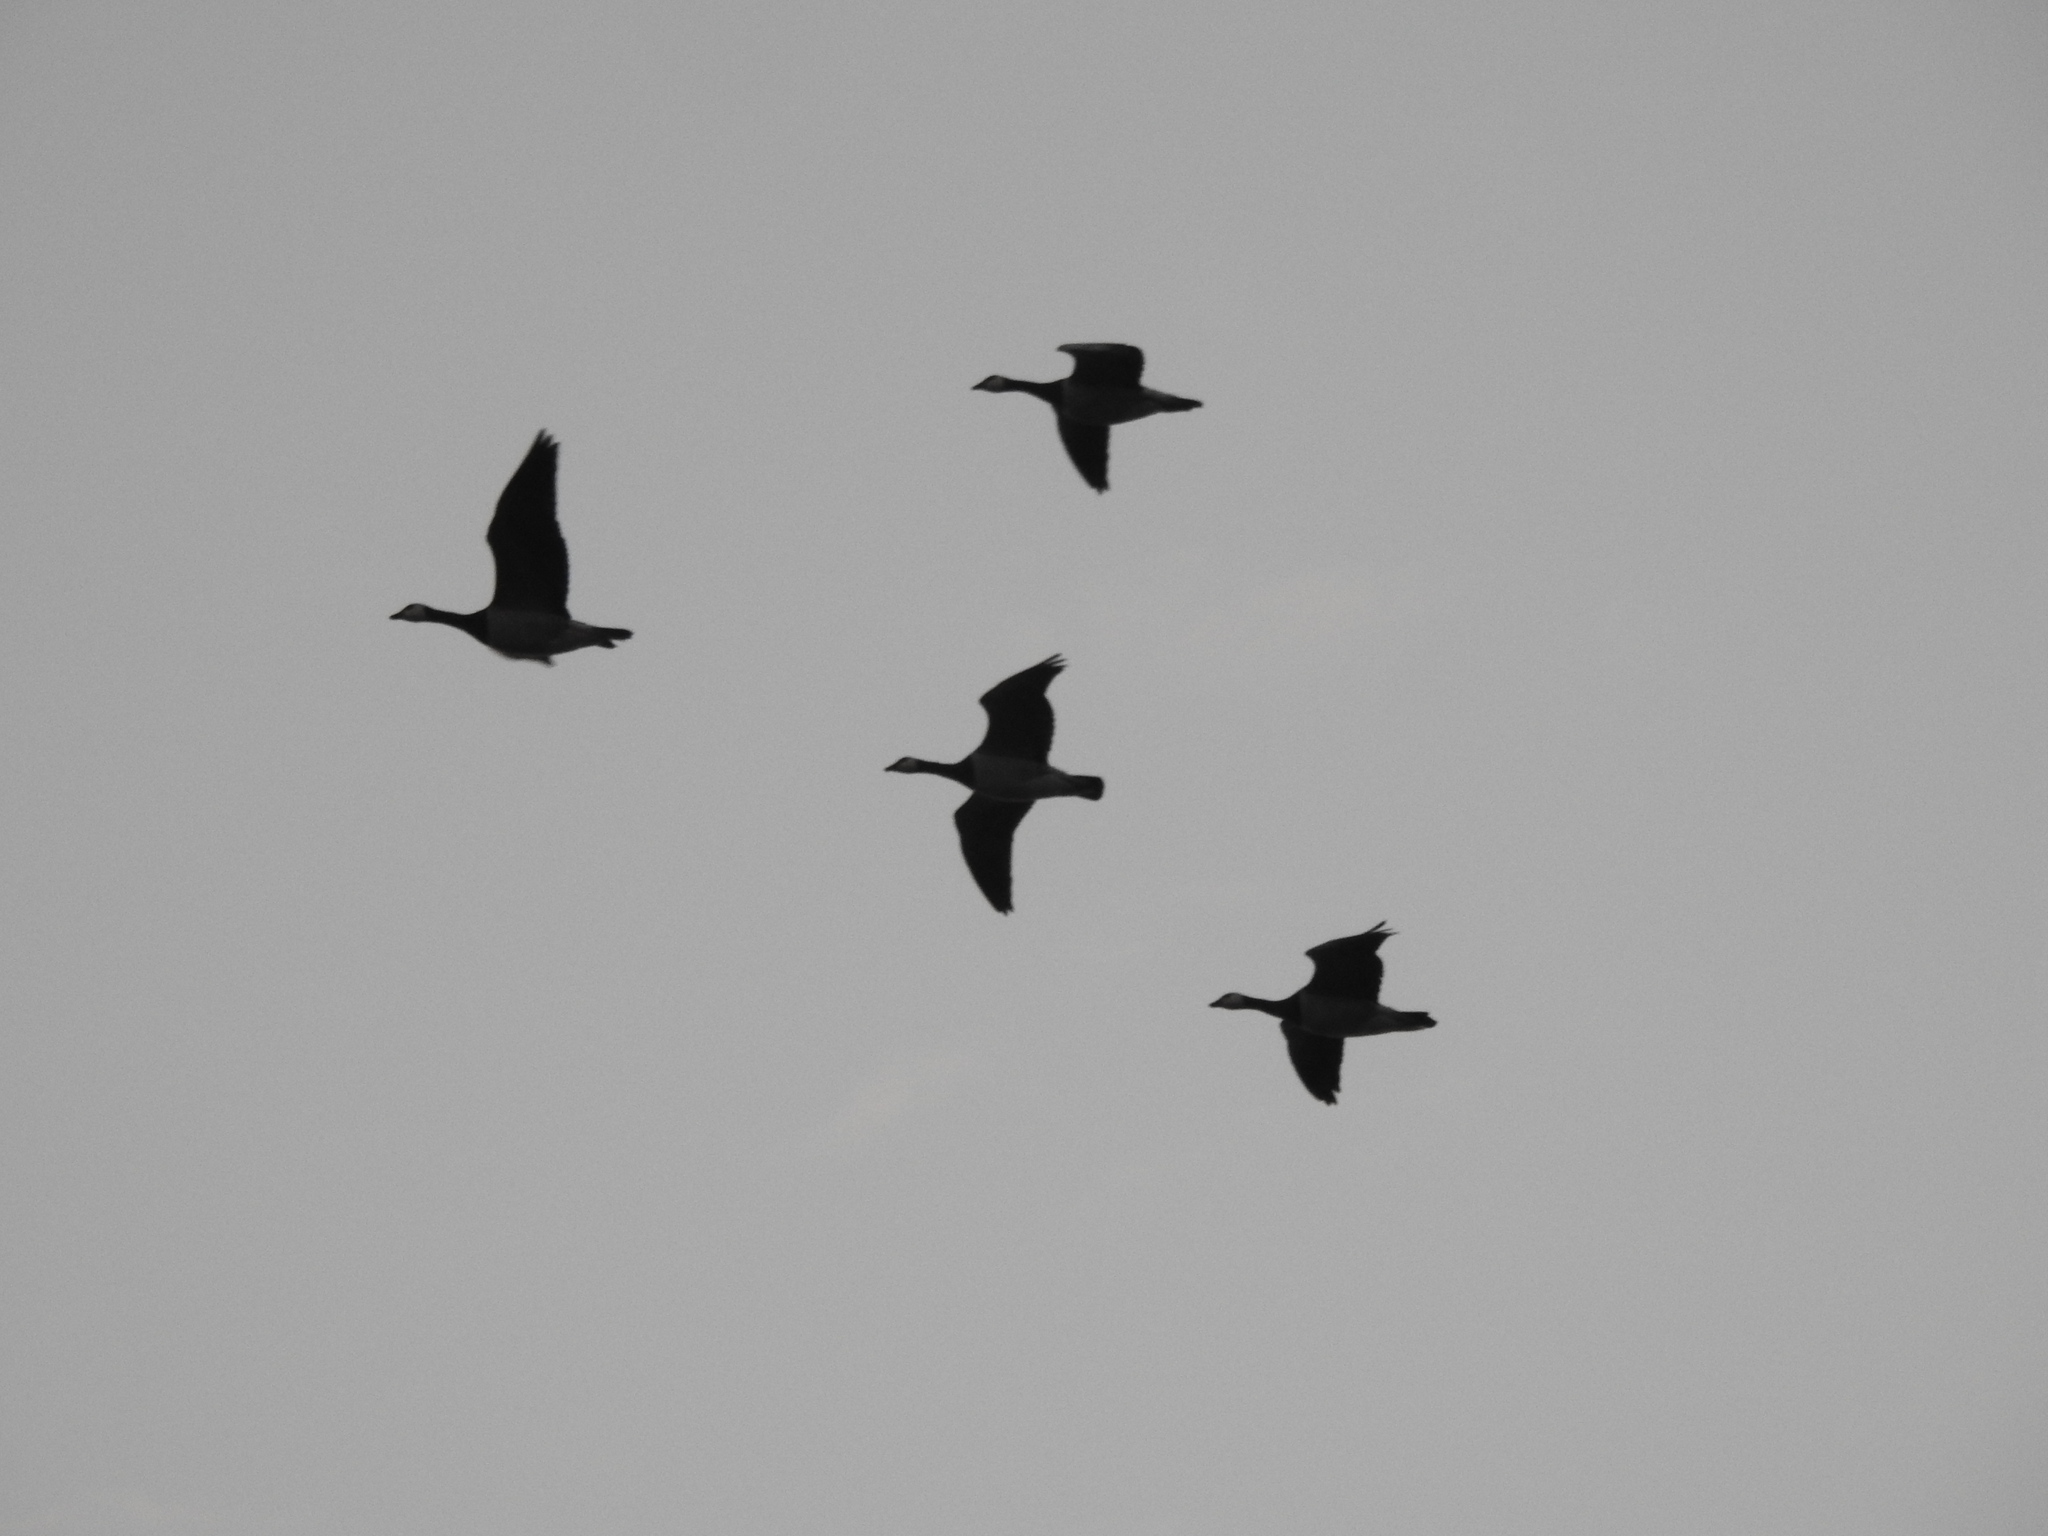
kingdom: Animalia
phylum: Chordata
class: Aves
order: Anseriformes
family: Anatidae
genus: Branta
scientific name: Branta leucopsis
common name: Barnacle goose
